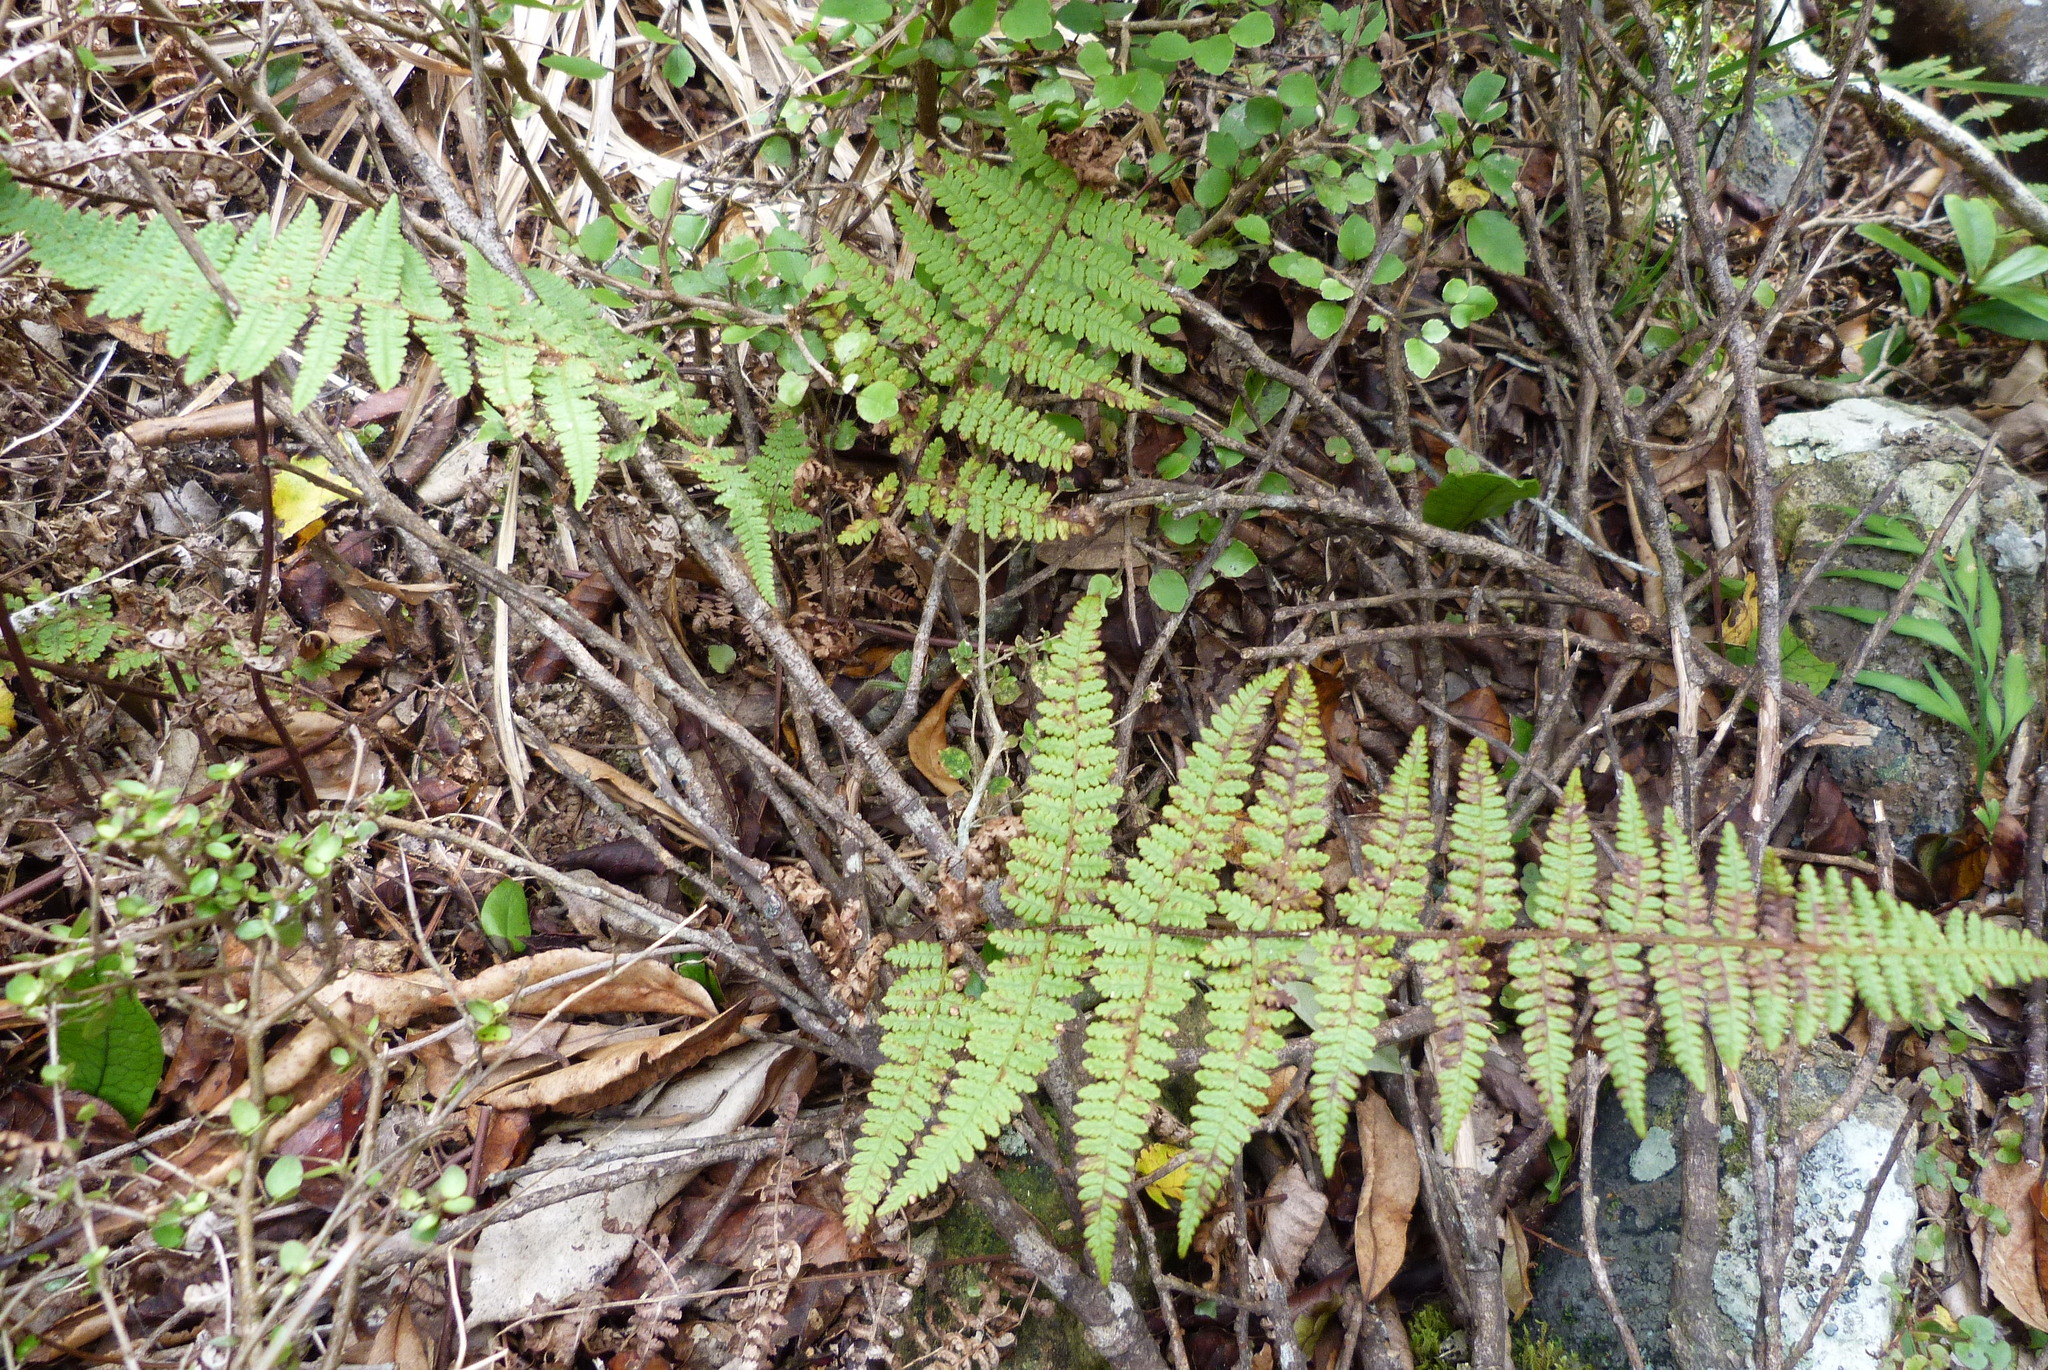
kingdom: Plantae
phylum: Tracheophyta
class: Polypodiopsida
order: Polypodiales
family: Dennstaedtiaceae
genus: Hypolepis
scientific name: Hypolepis rugosula
